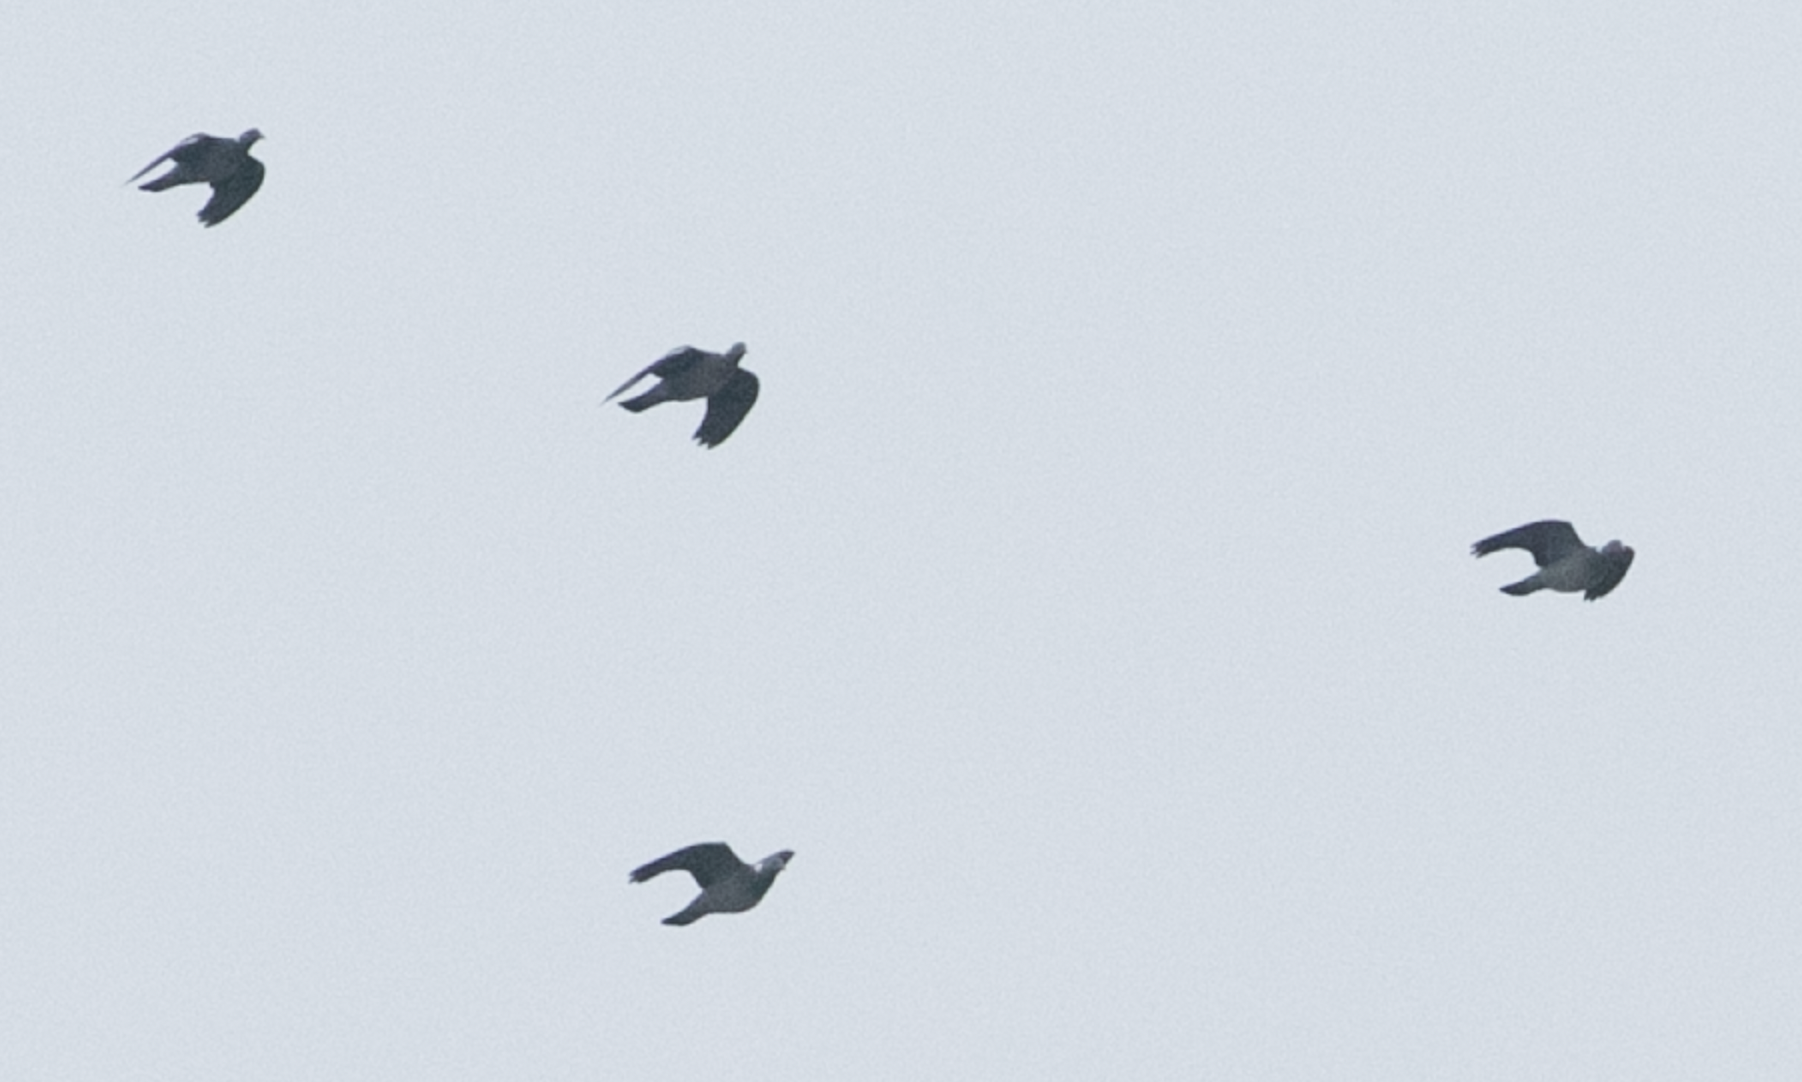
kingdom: Animalia
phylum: Chordata
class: Aves
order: Columbiformes
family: Columbidae
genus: Columba
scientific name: Columba palumbus
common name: Common wood pigeon
